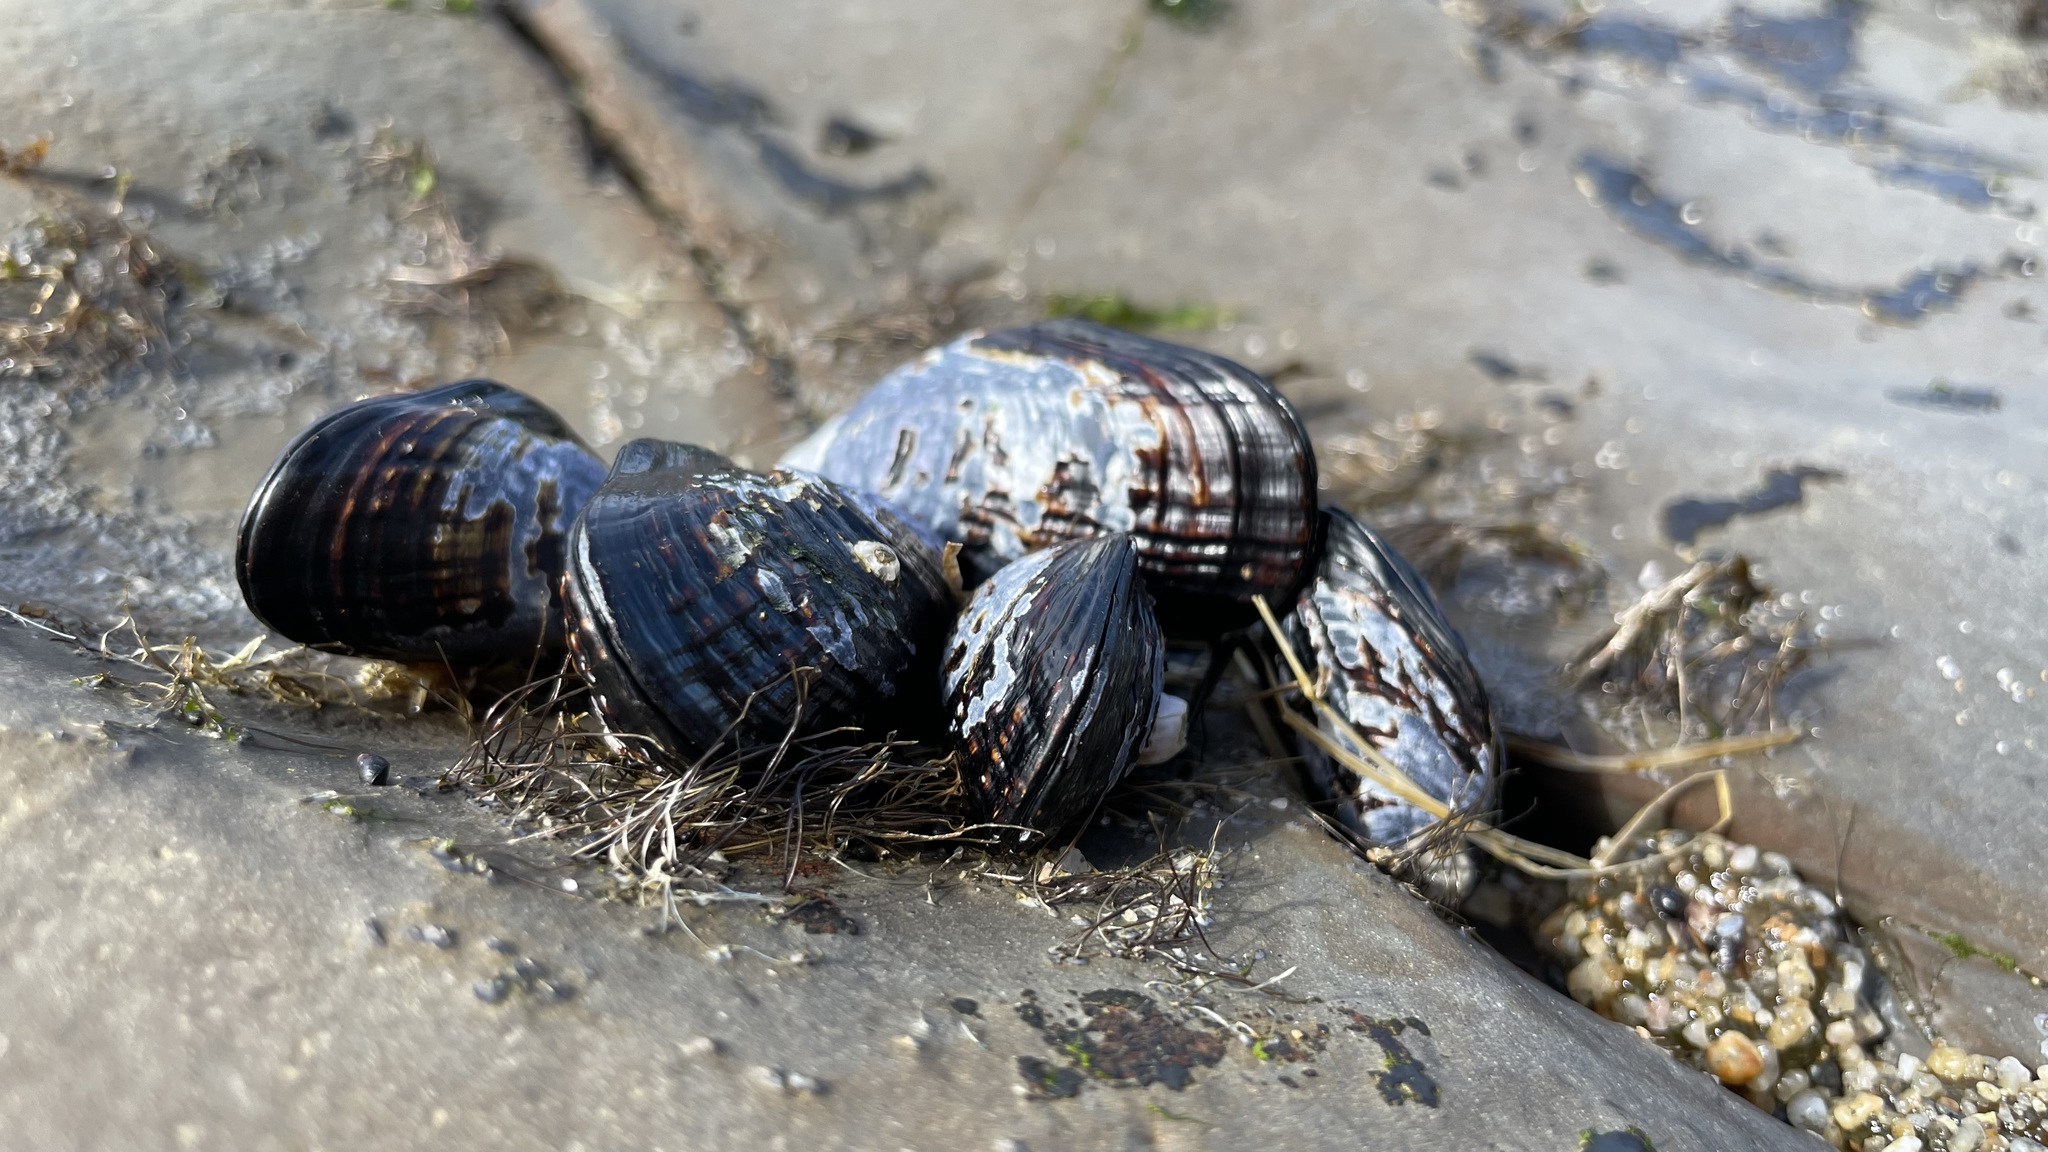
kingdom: Animalia
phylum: Mollusca
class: Bivalvia
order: Mytilida
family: Mytilidae
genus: Mytilus
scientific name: Mytilus californianus
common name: California mussel
